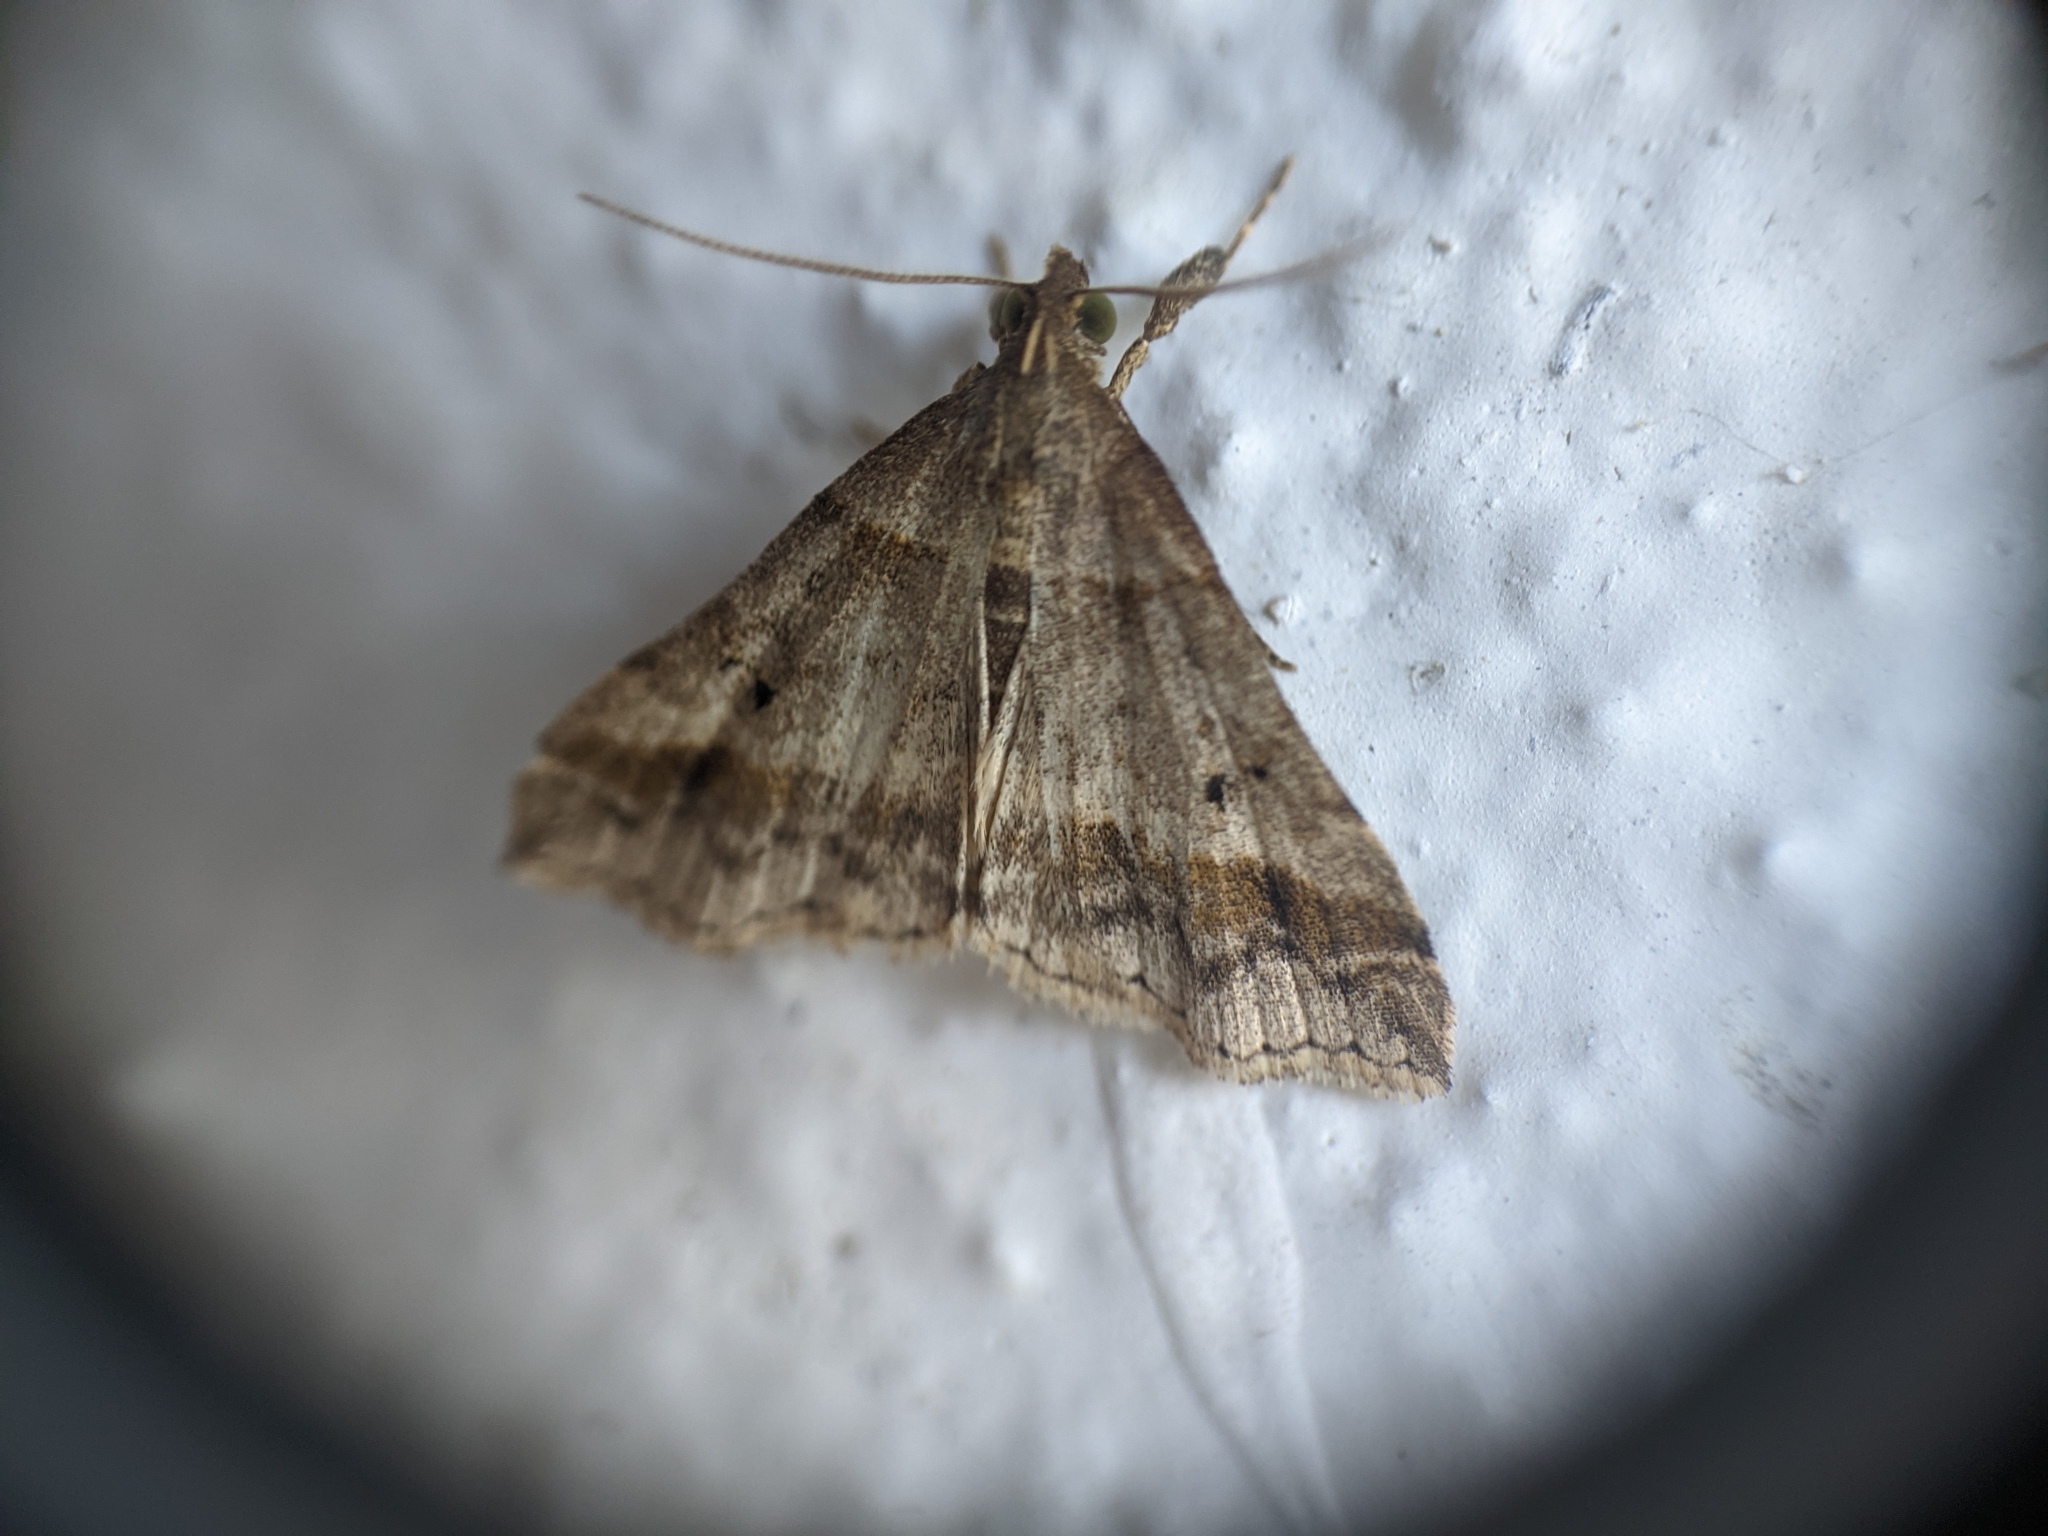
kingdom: Animalia
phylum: Arthropoda
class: Insecta
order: Lepidoptera
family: Erebidae
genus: Phaeolita
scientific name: Phaeolita pyramusalis
